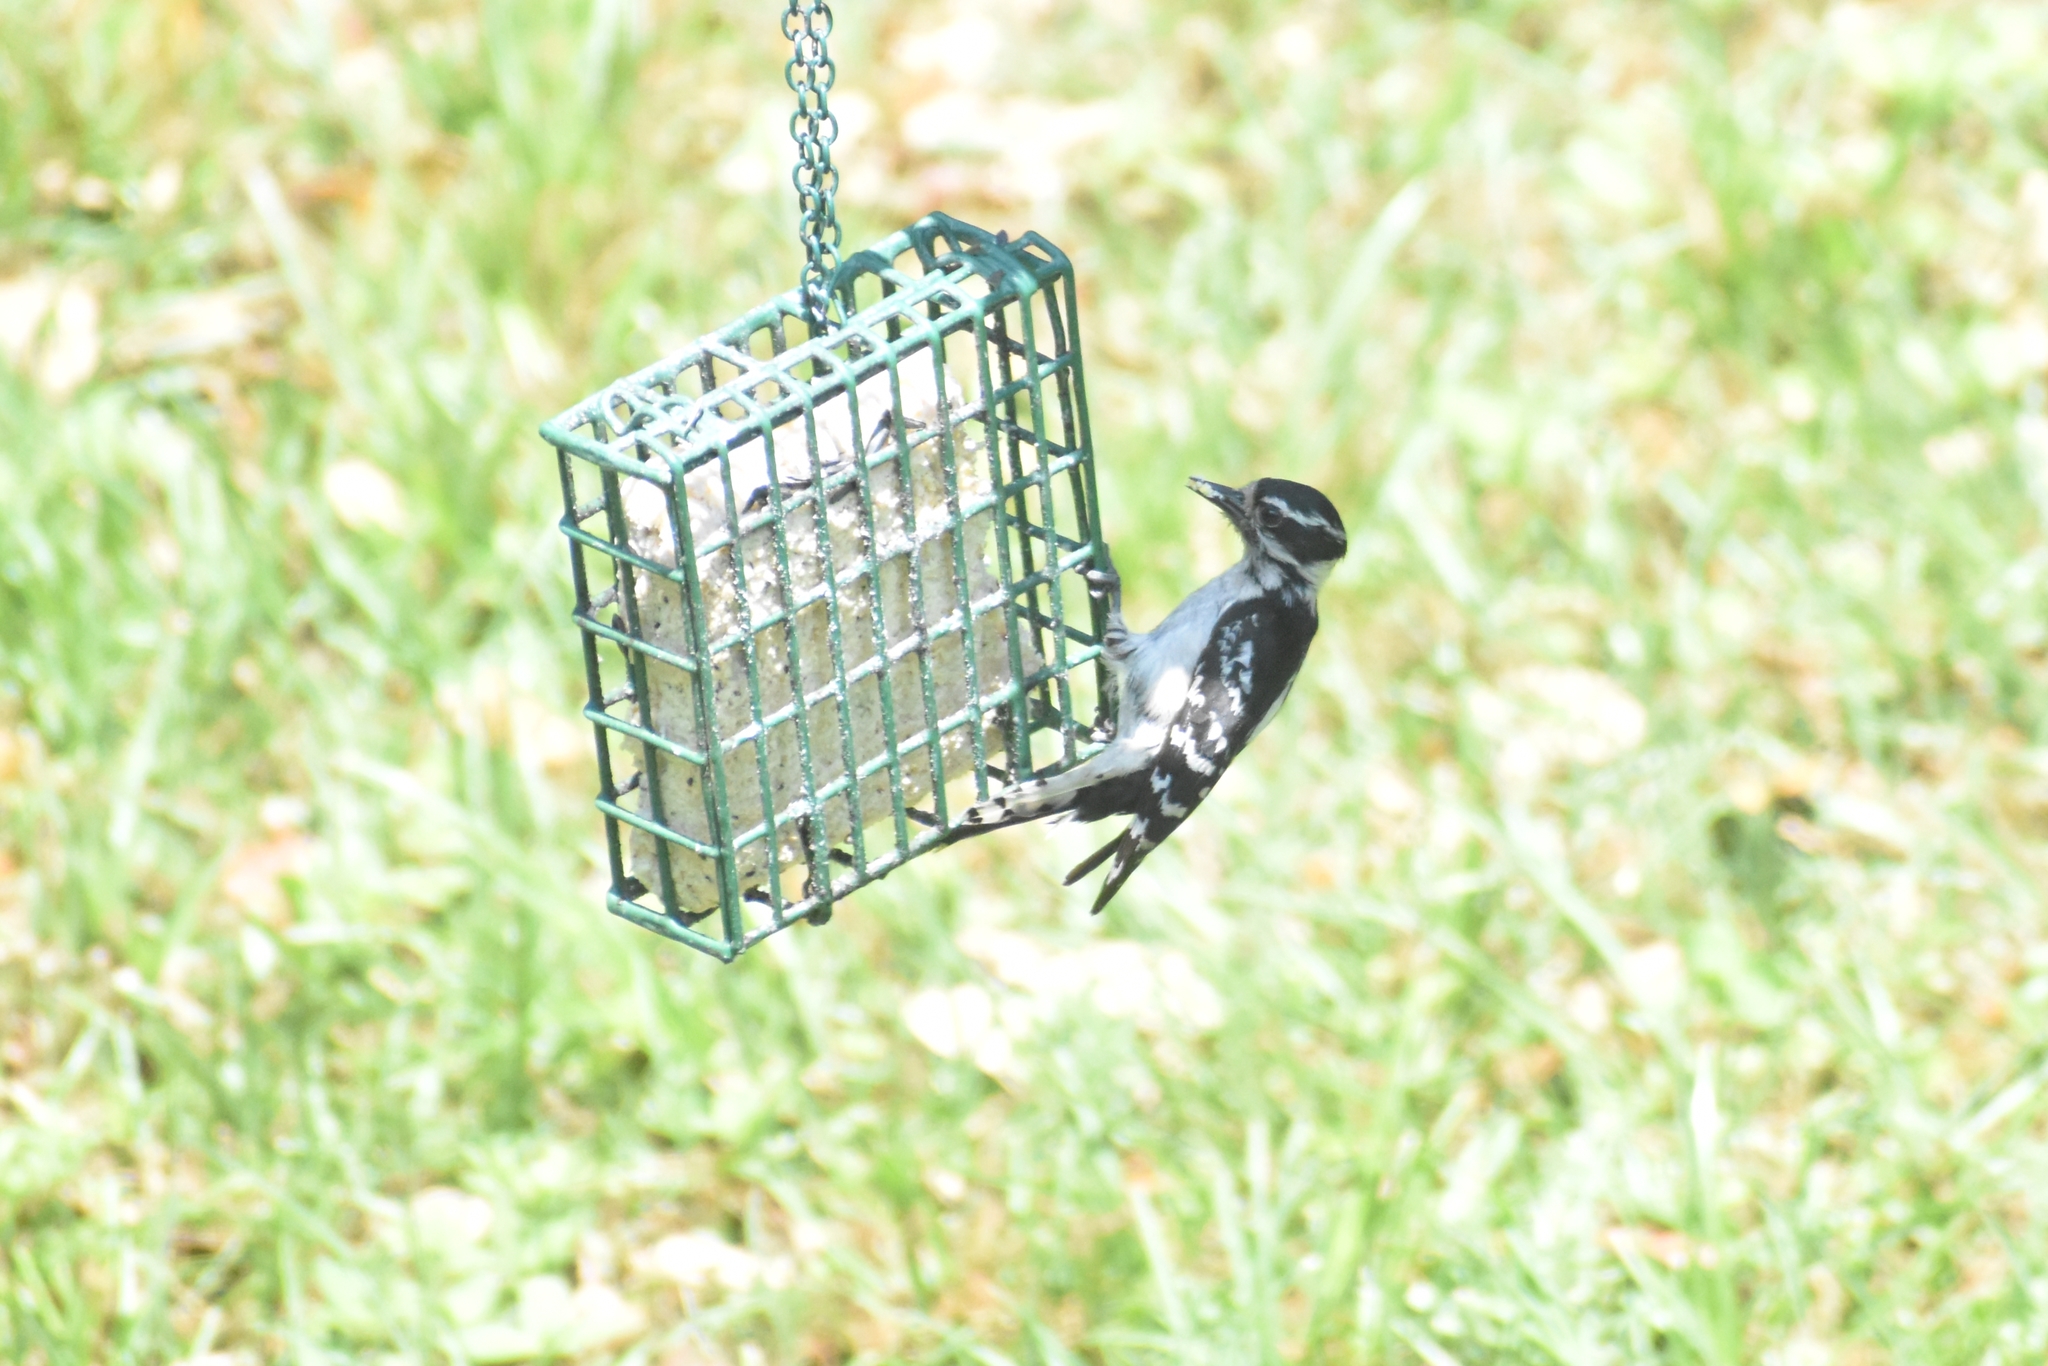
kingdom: Animalia
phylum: Chordata
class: Aves
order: Piciformes
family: Picidae
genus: Dryobates
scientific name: Dryobates pubescens
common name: Downy woodpecker
